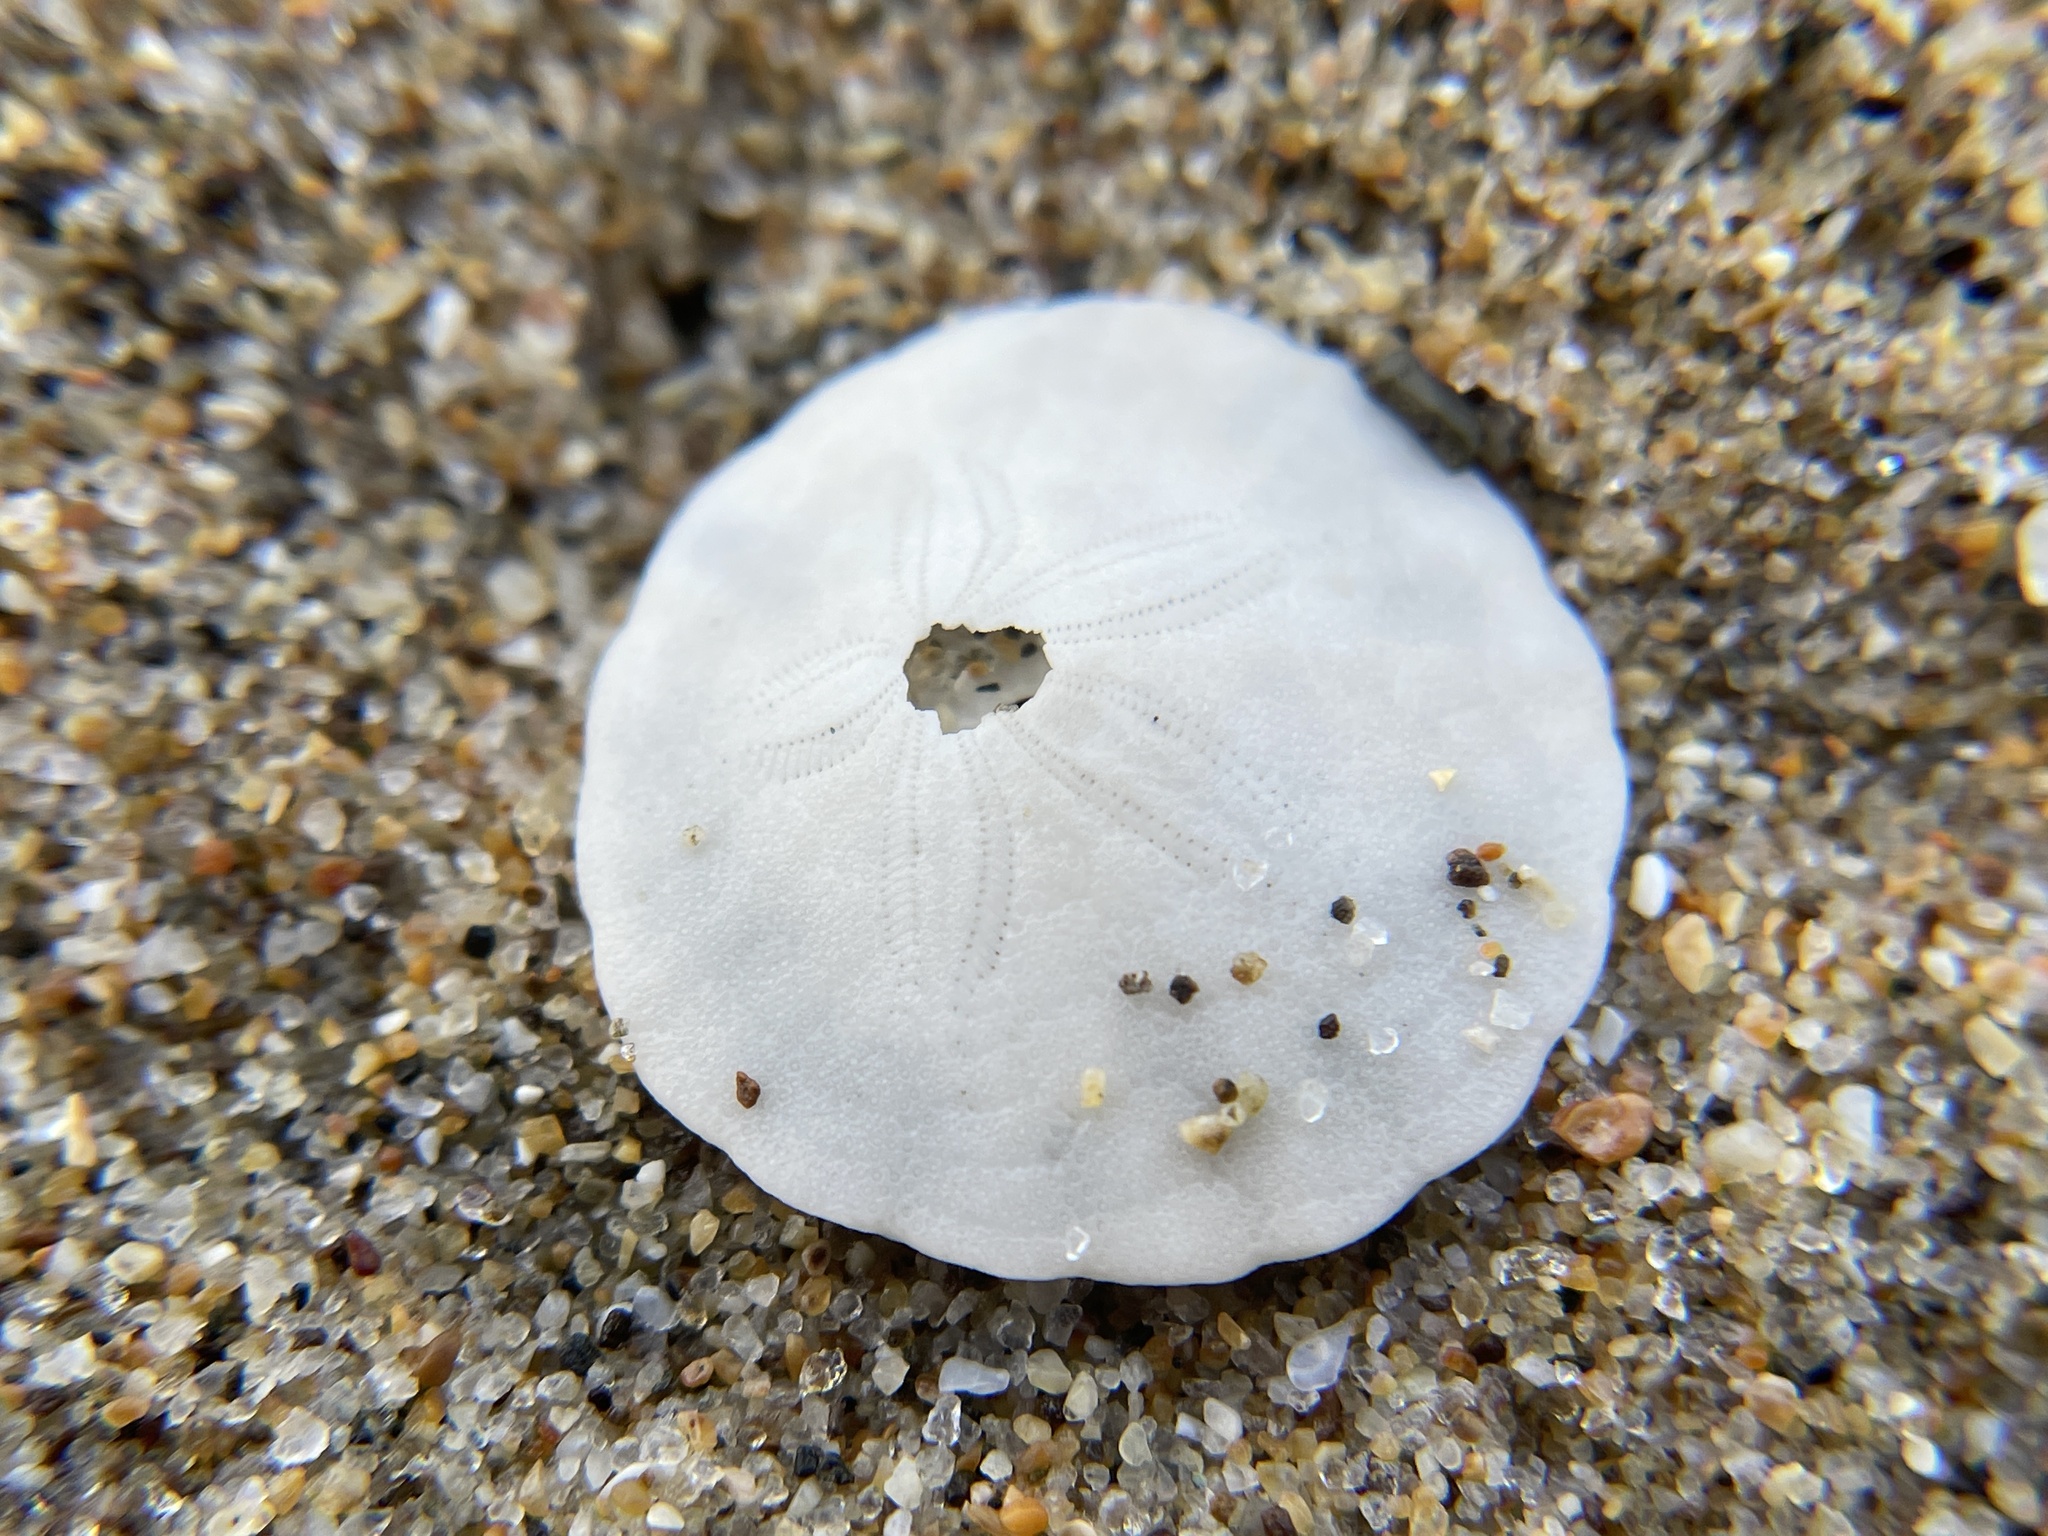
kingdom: Animalia
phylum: Echinodermata
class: Echinoidea
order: Echinolampadacea
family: Dendrasteridae
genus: Dendraster
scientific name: Dendraster excentricus
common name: Eccentric sand dollar sea urchin
